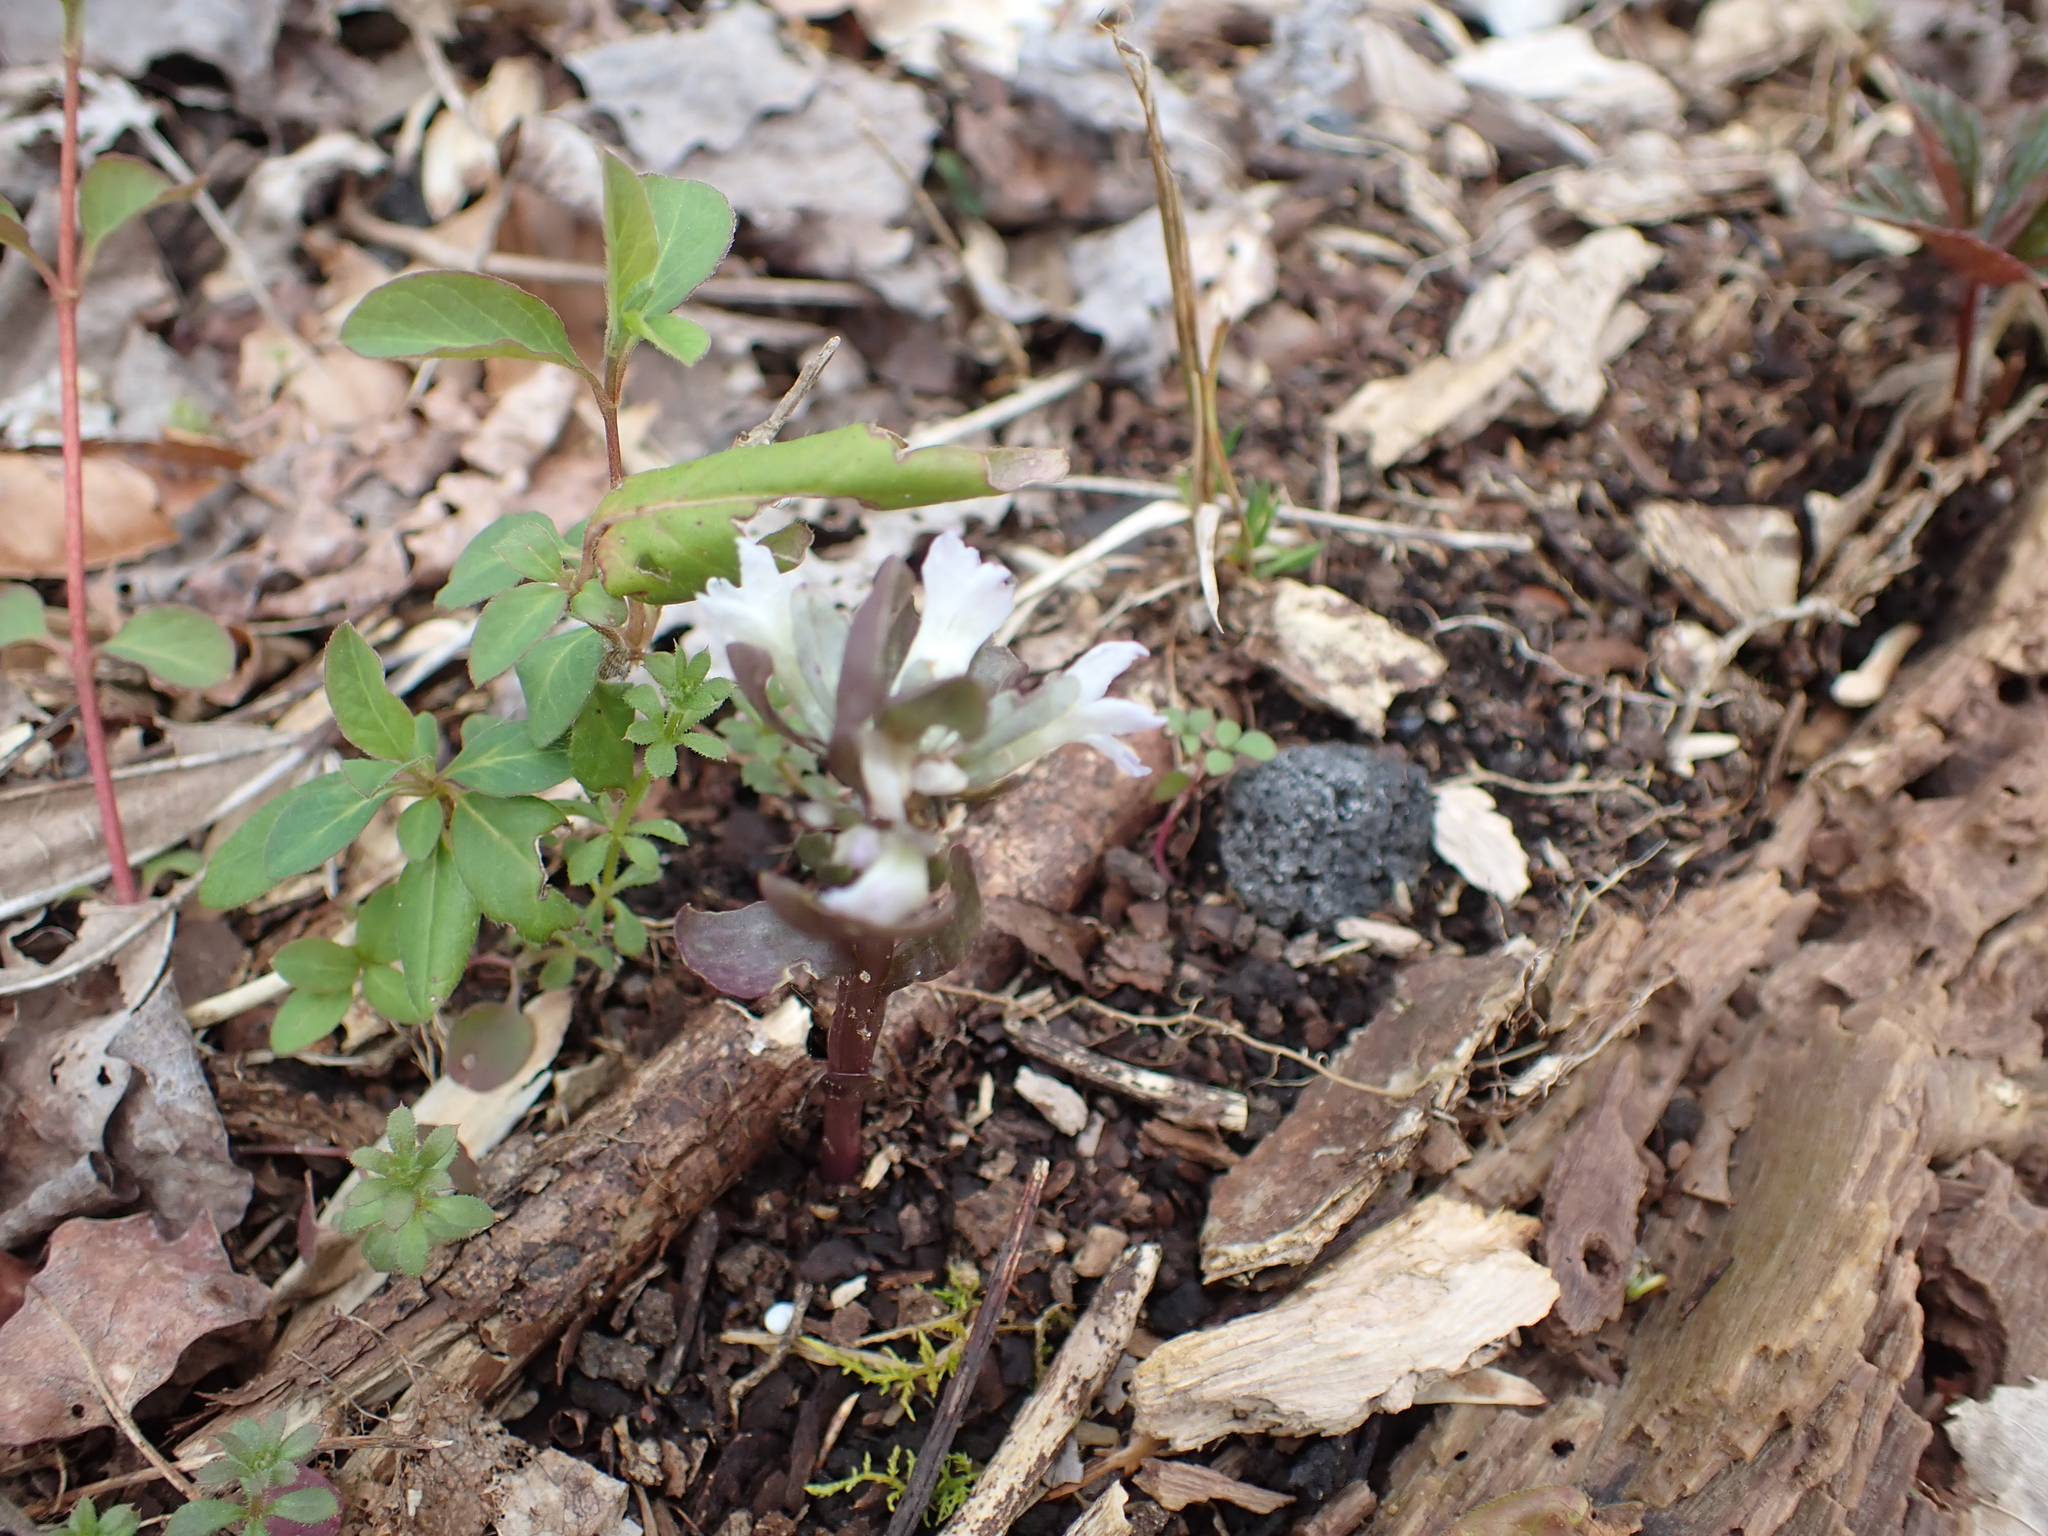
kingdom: Plantae
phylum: Tracheophyta
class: Magnoliopsida
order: Gentianales
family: Gentianaceae
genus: Obolaria
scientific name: Obolaria virginica
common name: Pennywort
